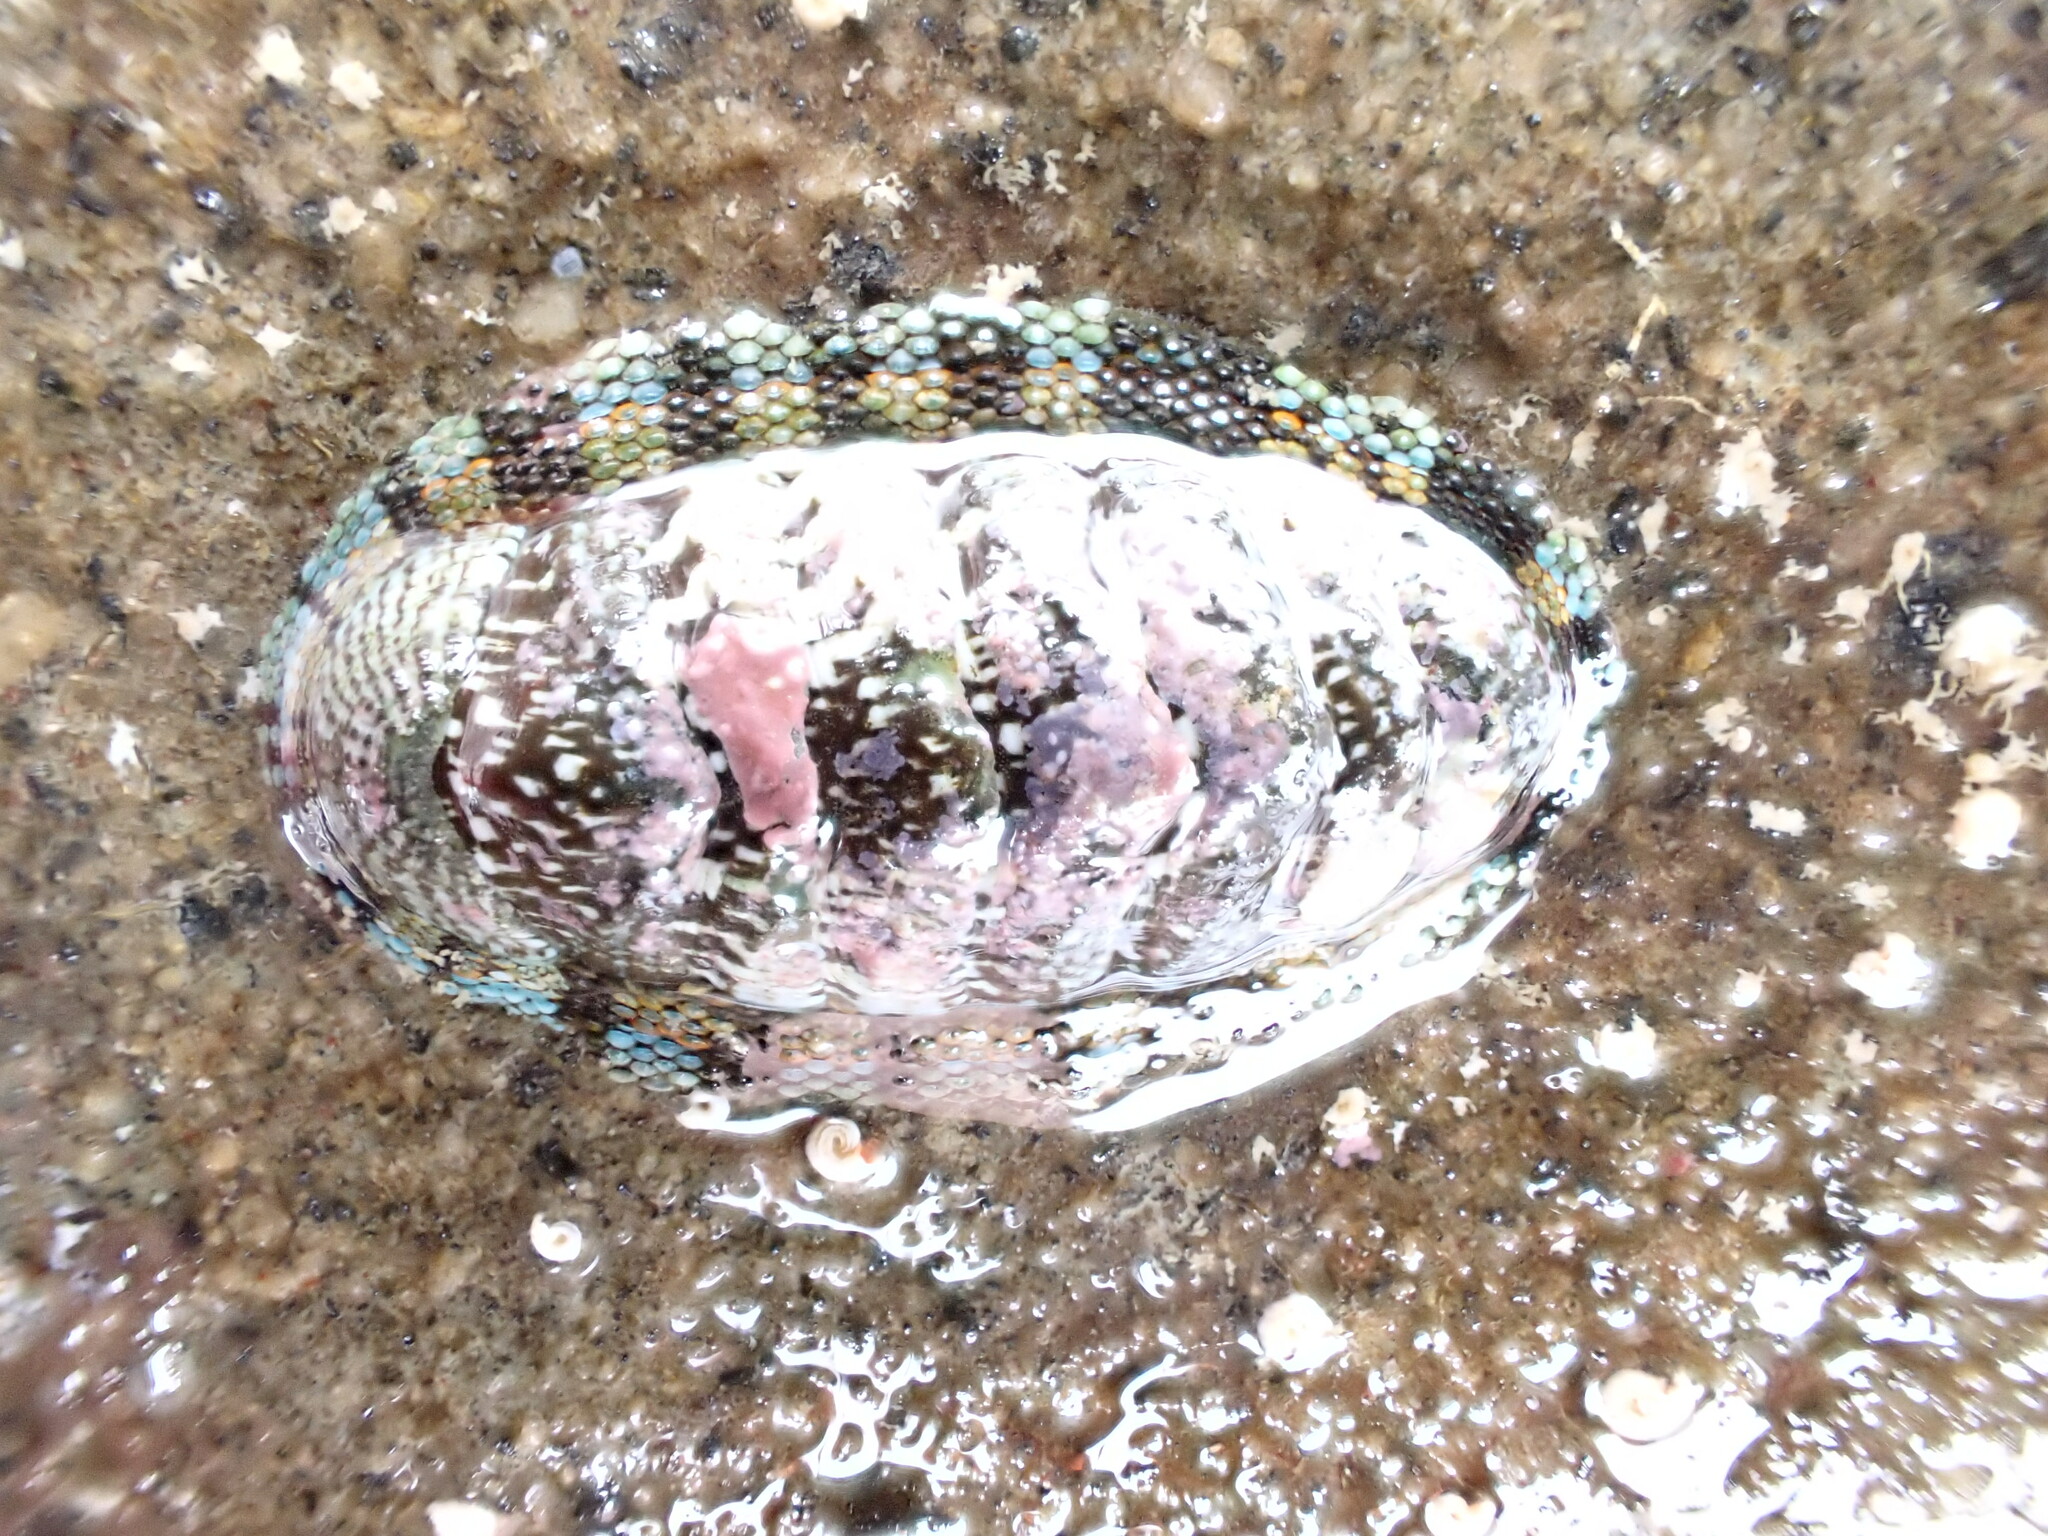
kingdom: Animalia
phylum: Mollusca
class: Polyplacophora
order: Chitonida
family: Chitonidae
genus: Sypharochiton
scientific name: Sypharochiton sinclairi
